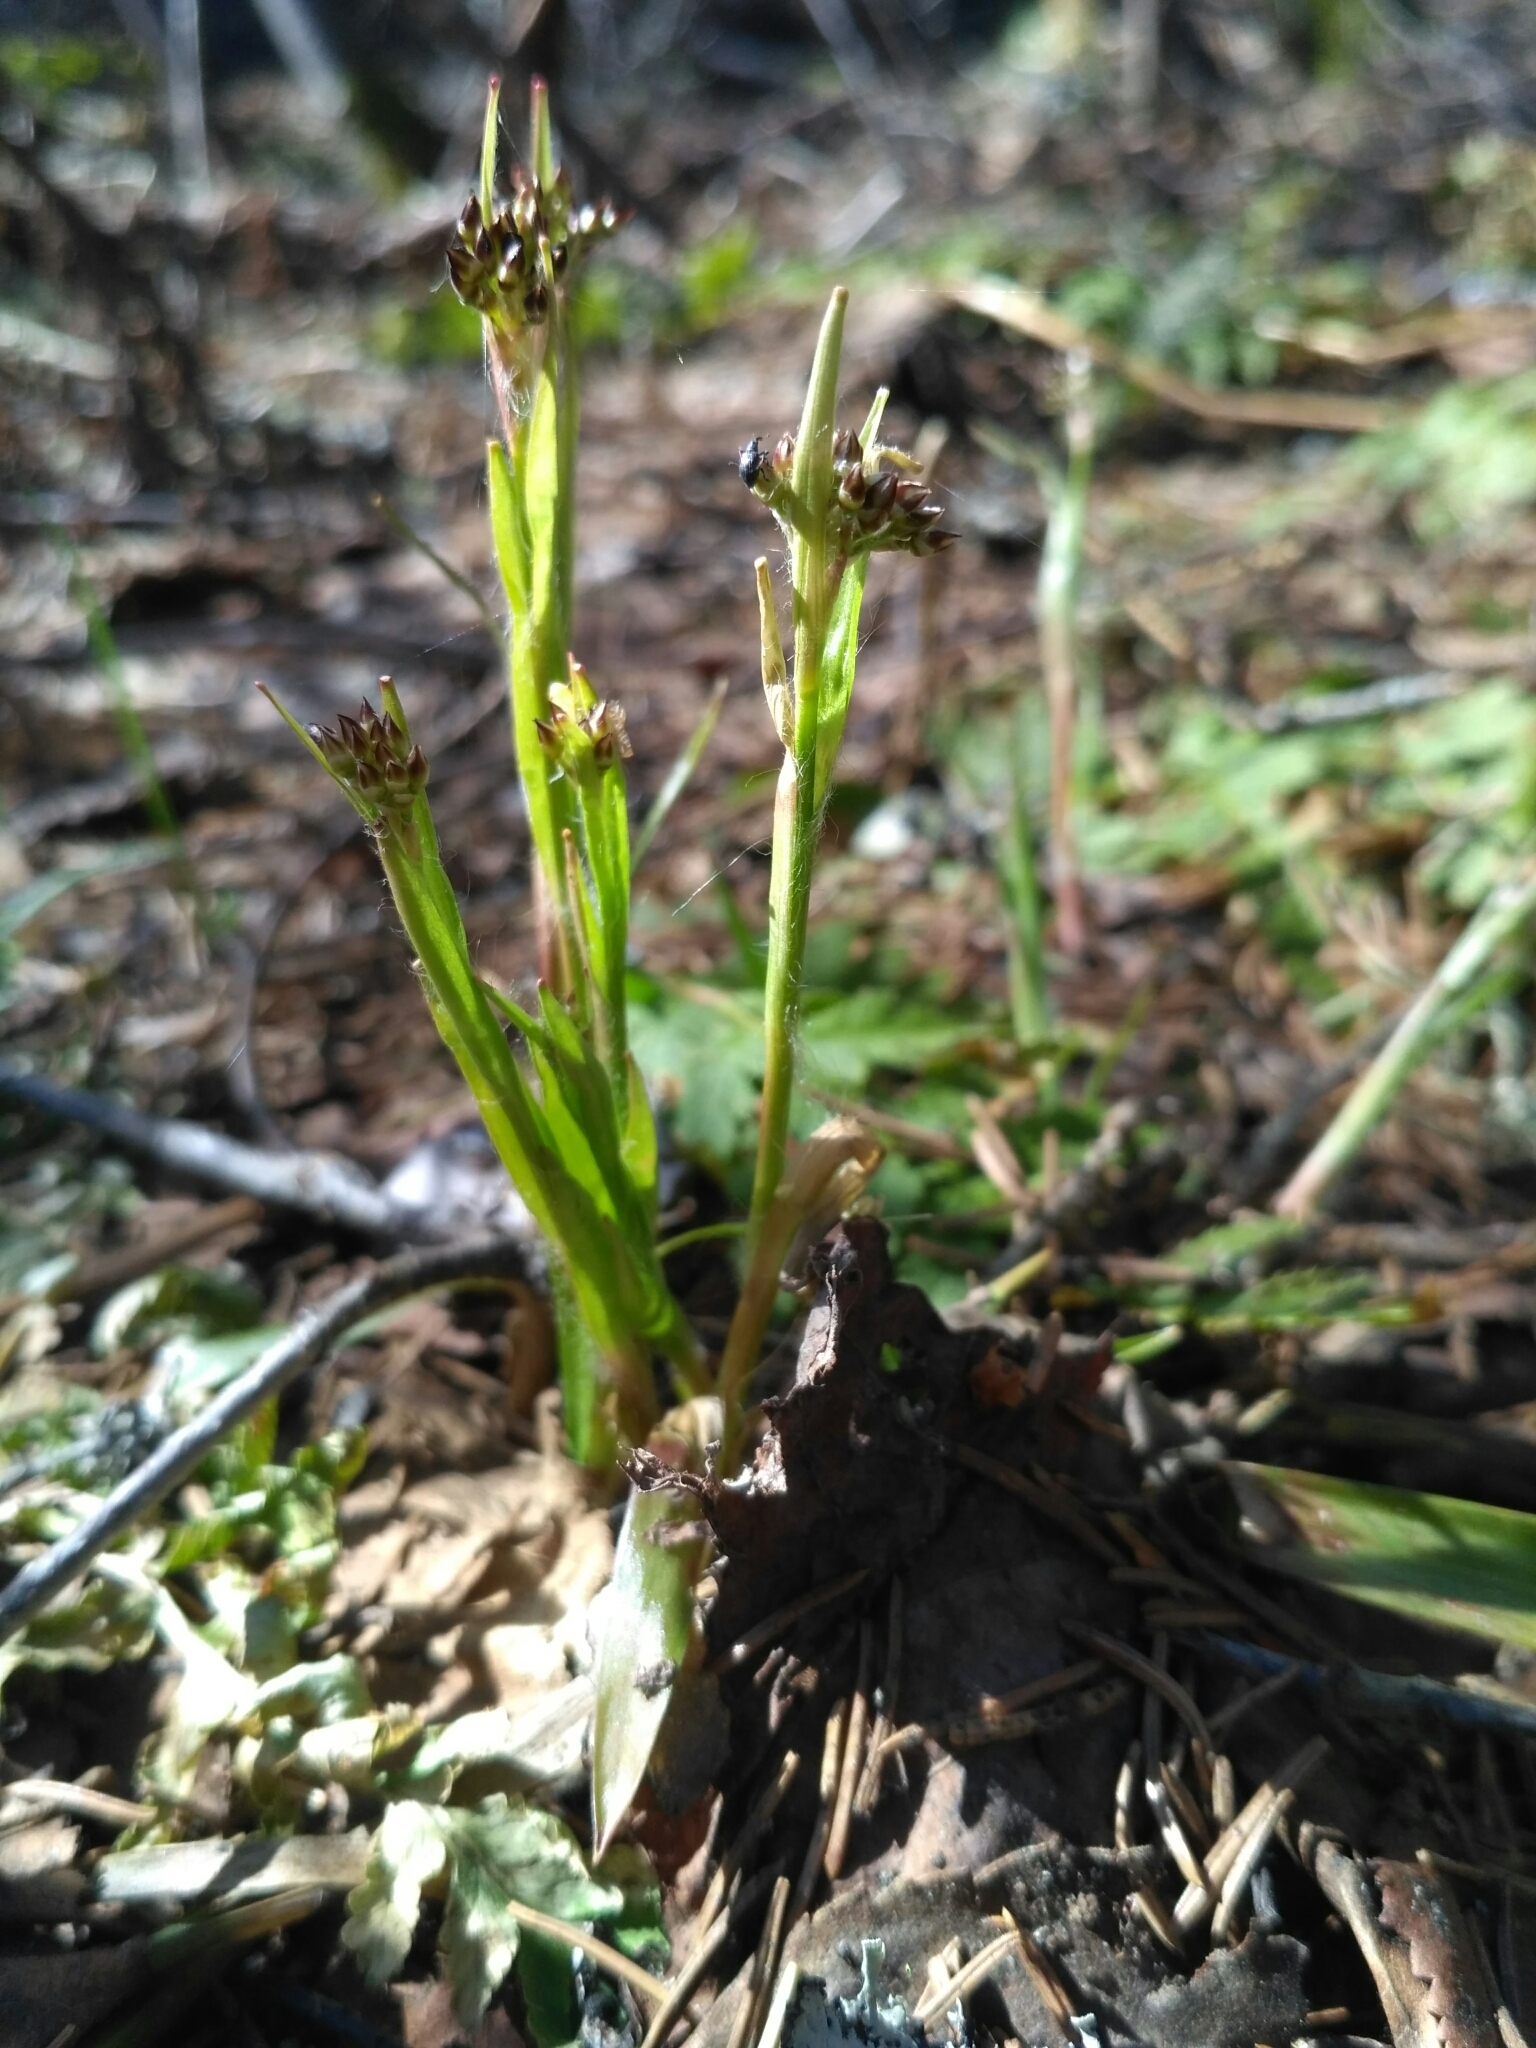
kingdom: Plantae
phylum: Tracheophyta
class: Liliopsida
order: Poales
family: Juncaceae
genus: Luzula
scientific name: Luzula pilosa
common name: Hairy wood-rush
